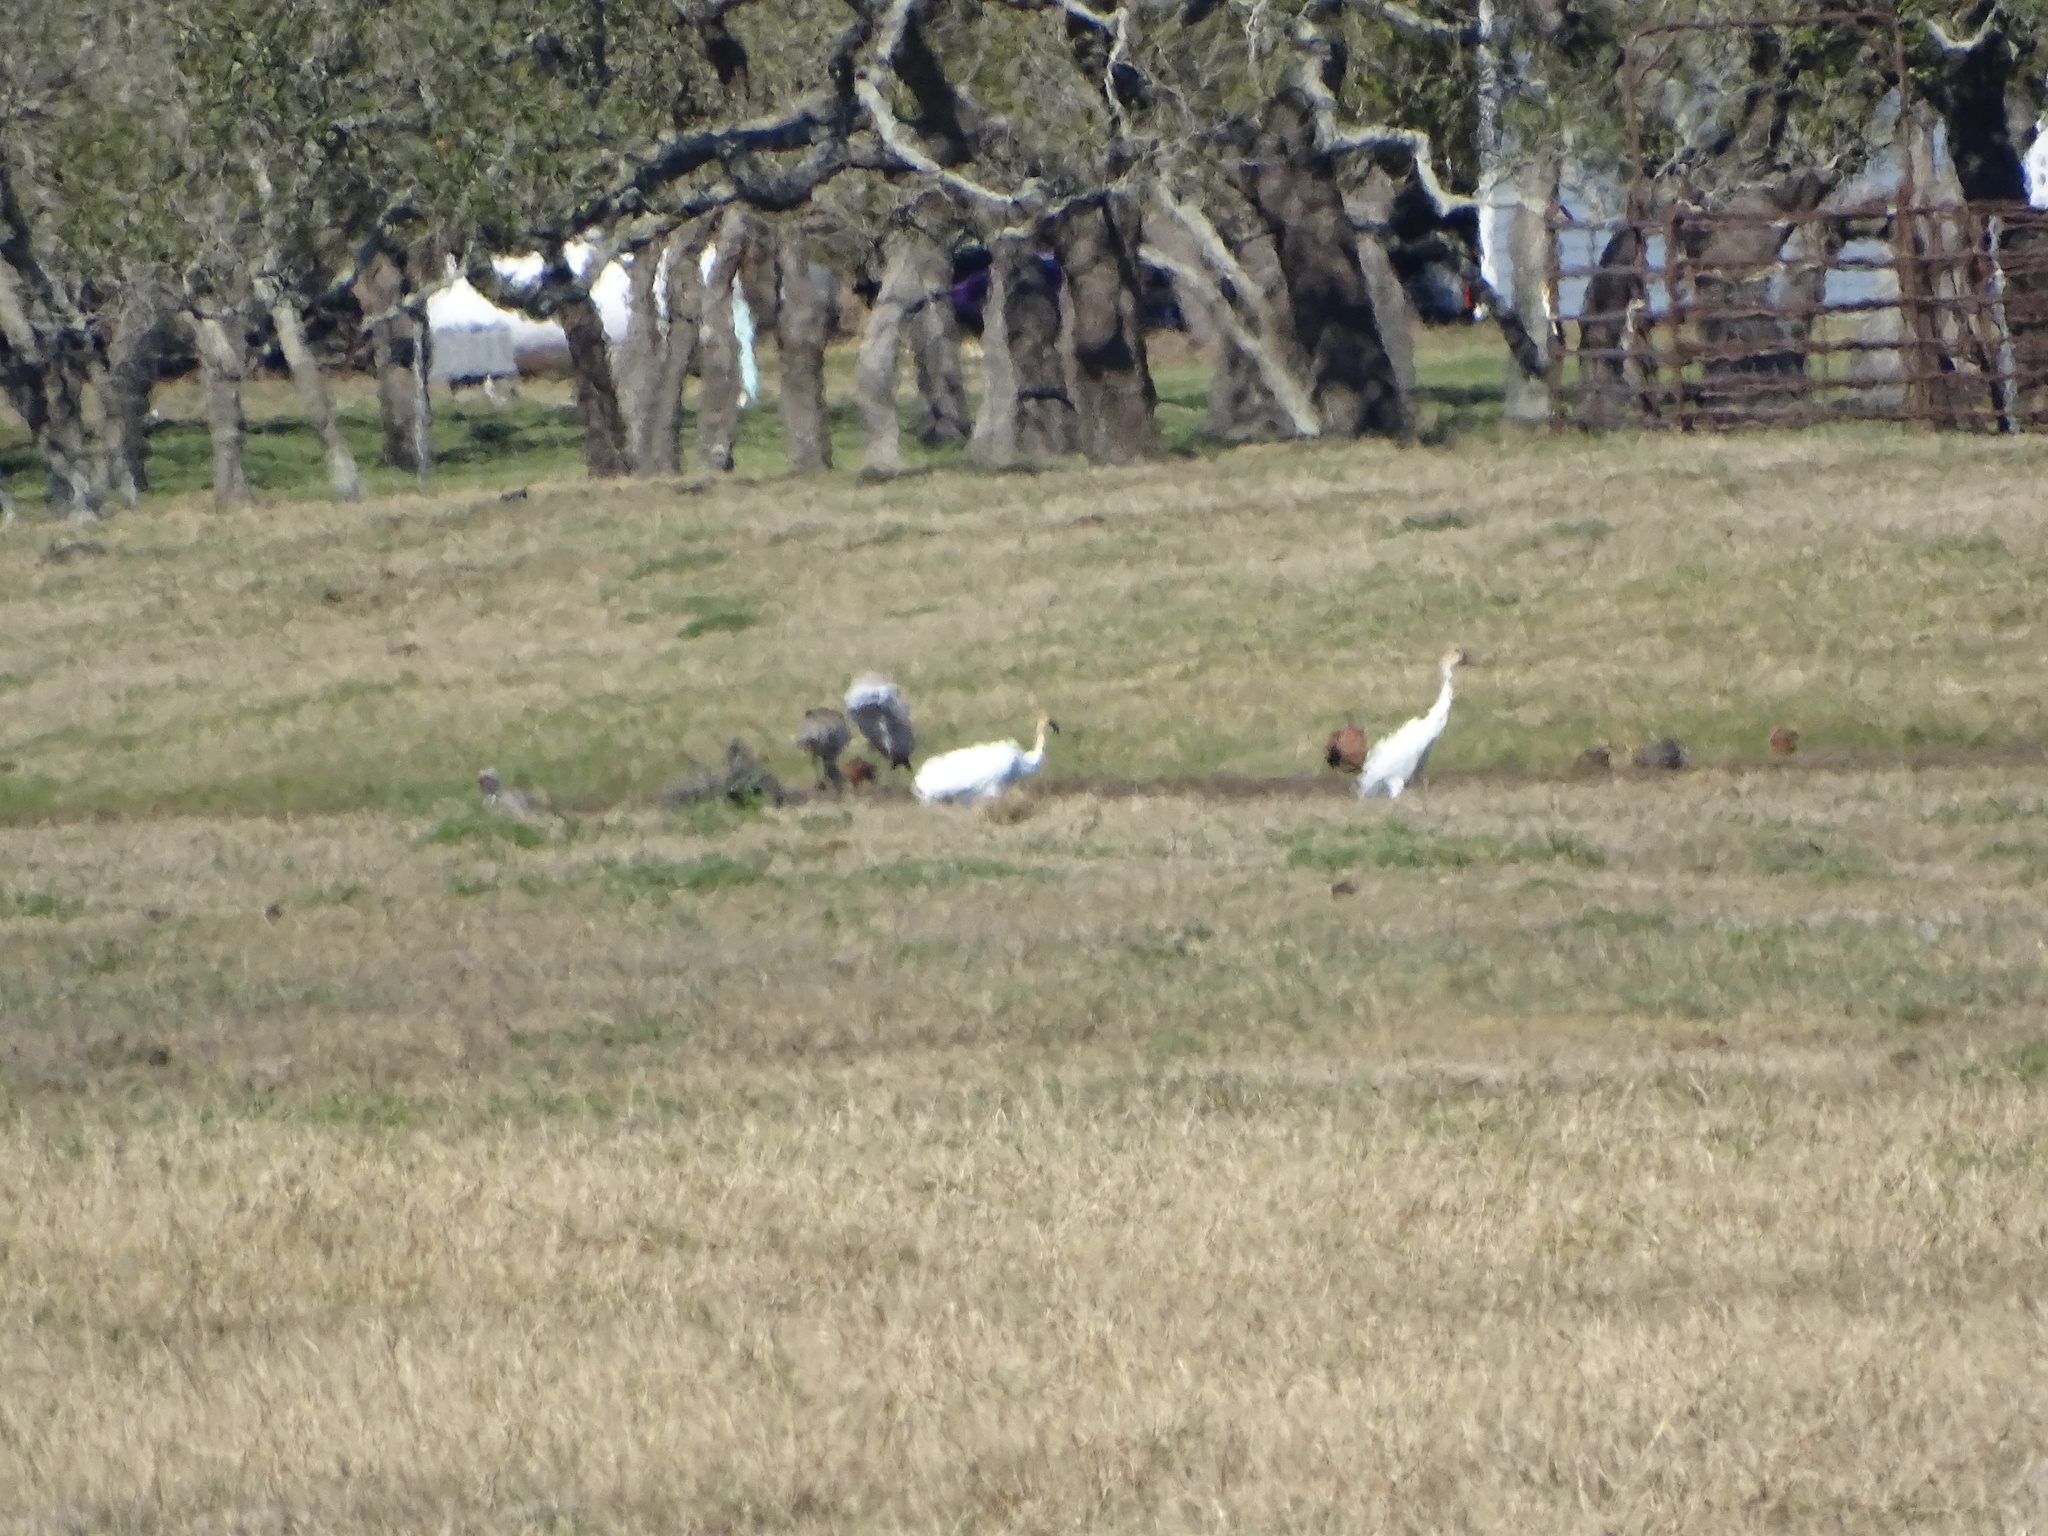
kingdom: Animalia
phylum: Chordata
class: Aves
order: Gruiformes
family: Gruidae
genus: Grus
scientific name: Grus americana
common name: Whooping crane
